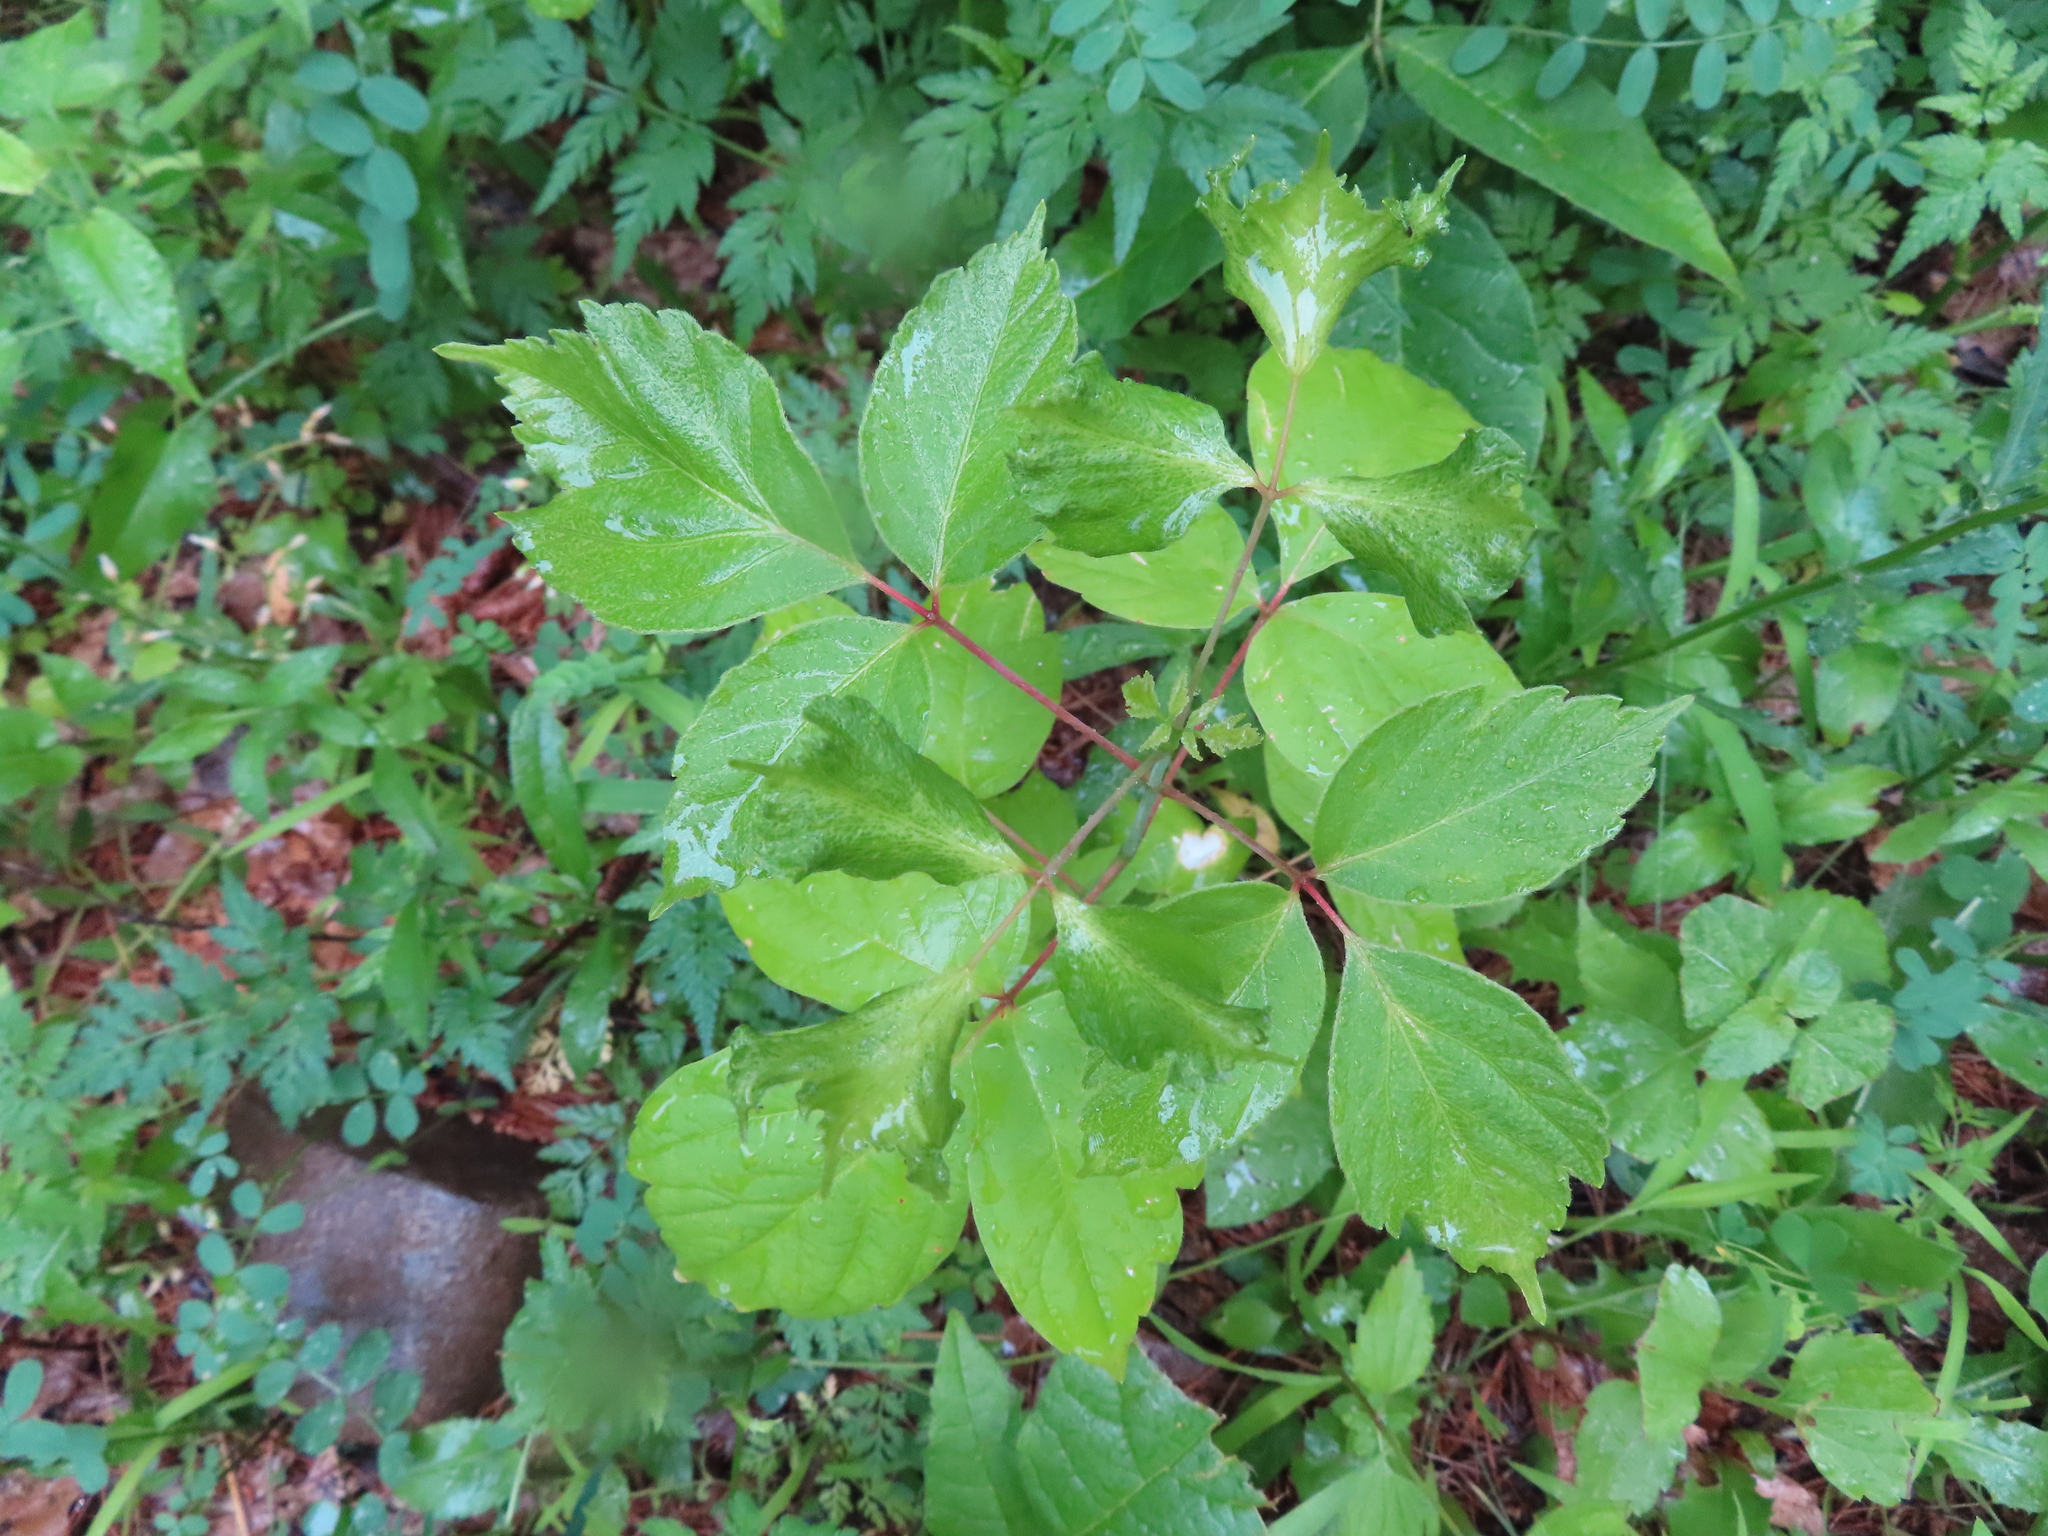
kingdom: Plantae
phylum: Tracheophyta
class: Magnoliopsida
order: Sapindales
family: Sapindaceae
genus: Acer
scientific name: Acer negundo
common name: Ashleaf maple
